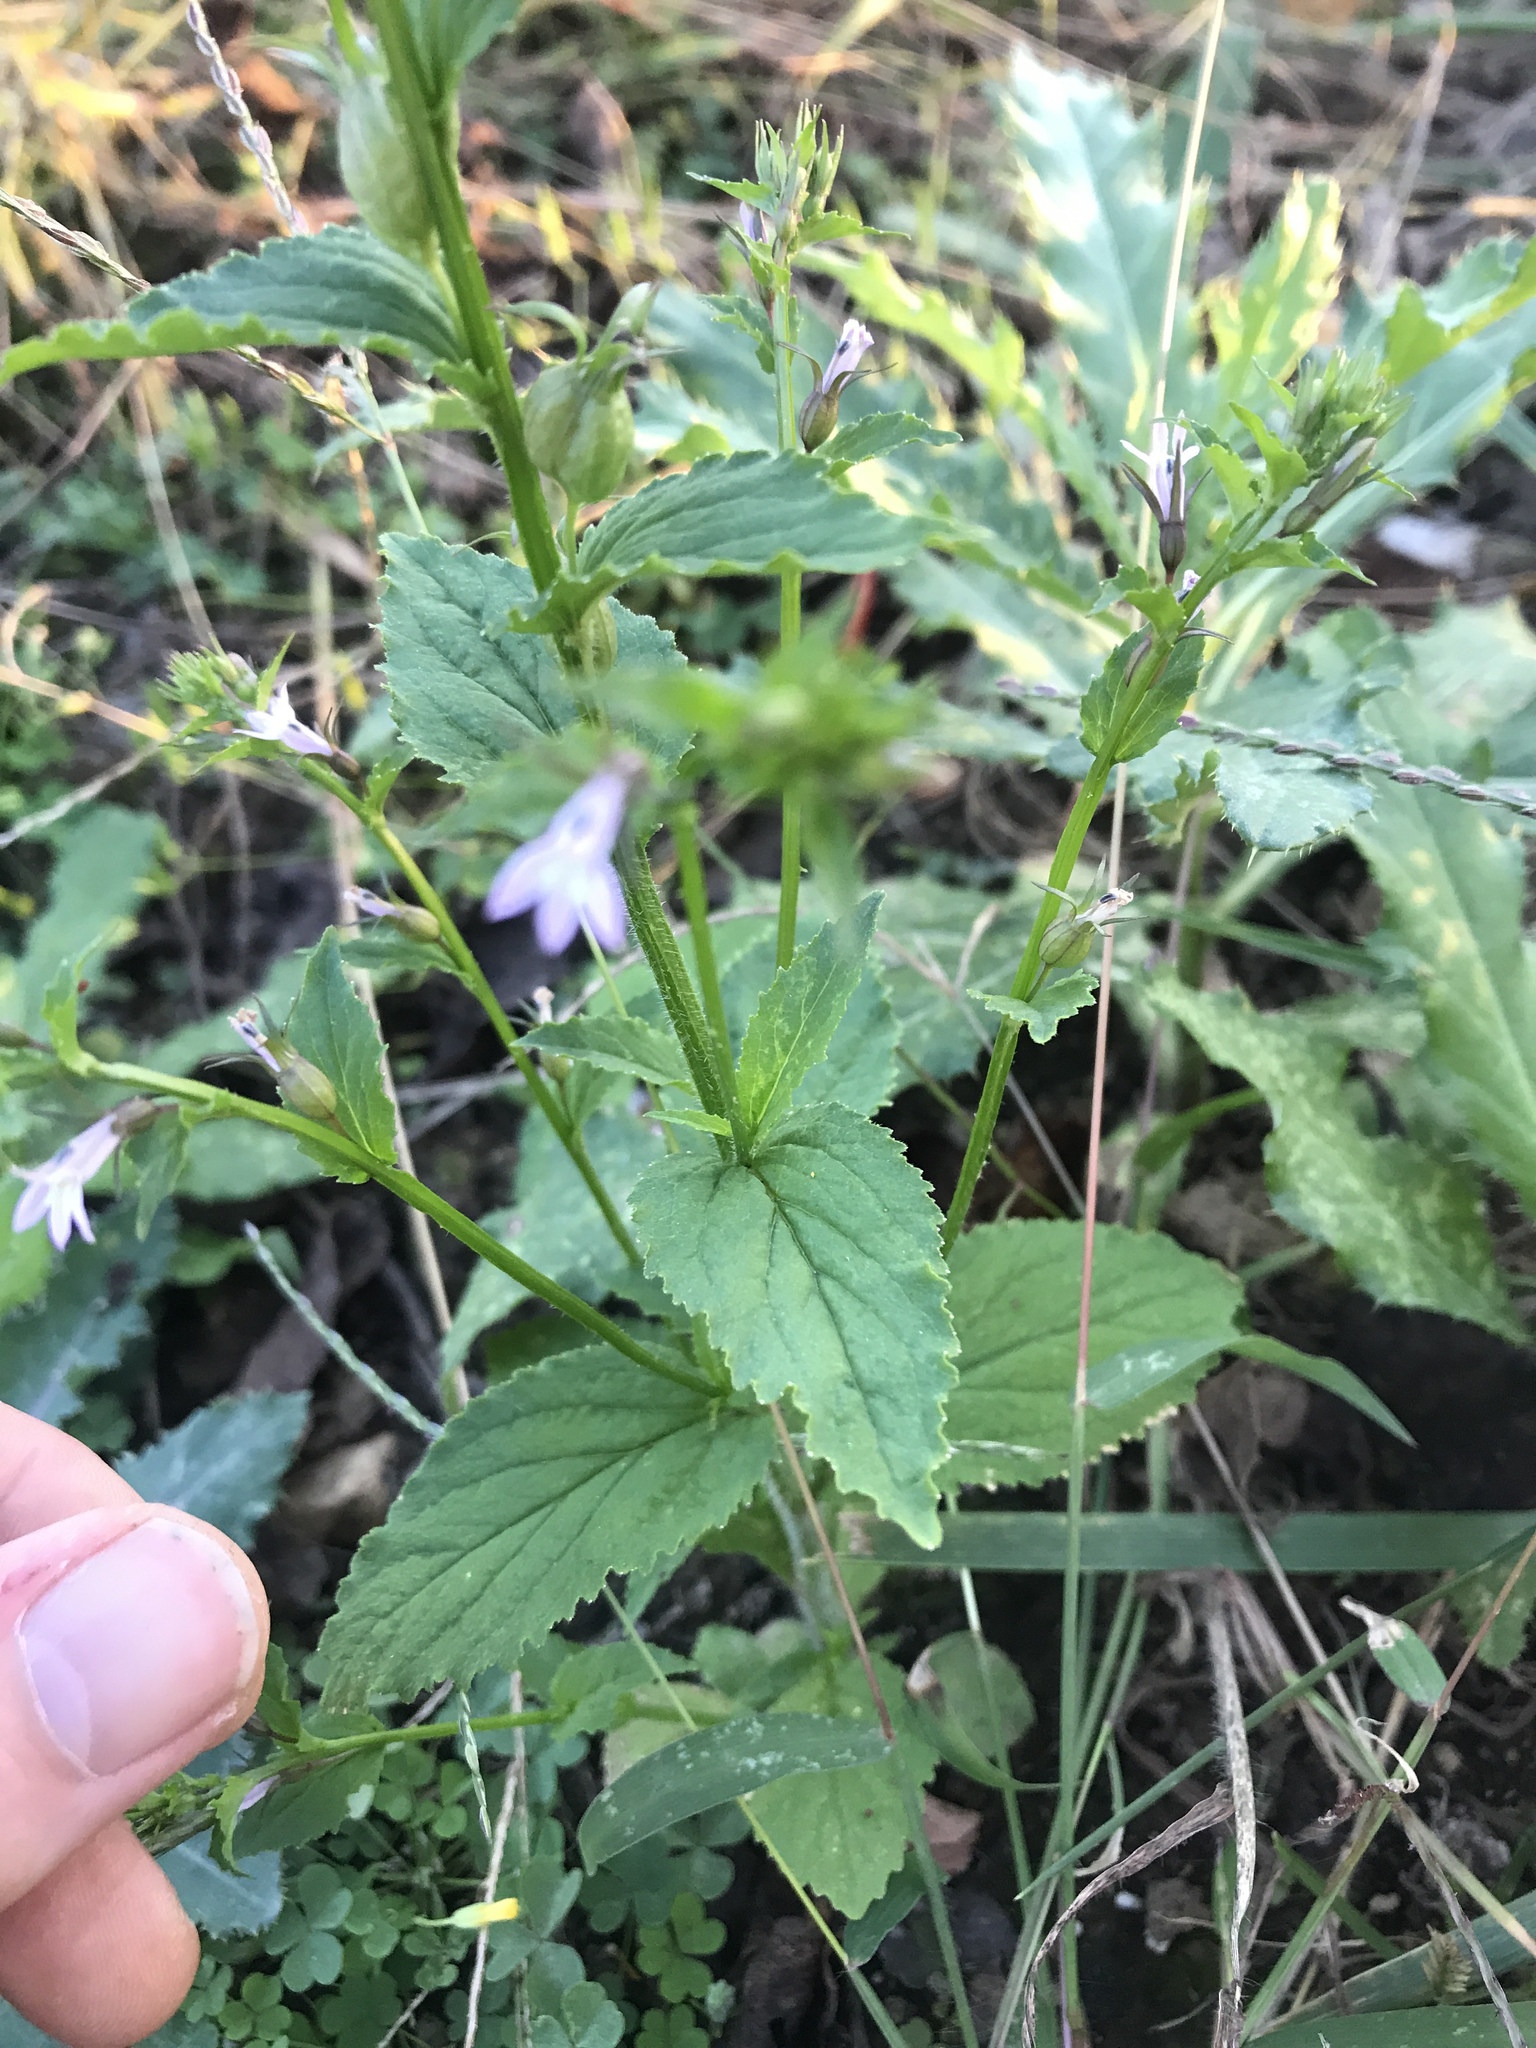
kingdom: Plantae
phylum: Tracheophyta
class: Magnoliopsida
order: Asterales
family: Campanulaceae
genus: Lobelia
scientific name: Lobelia inflata
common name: Indian tobacco
